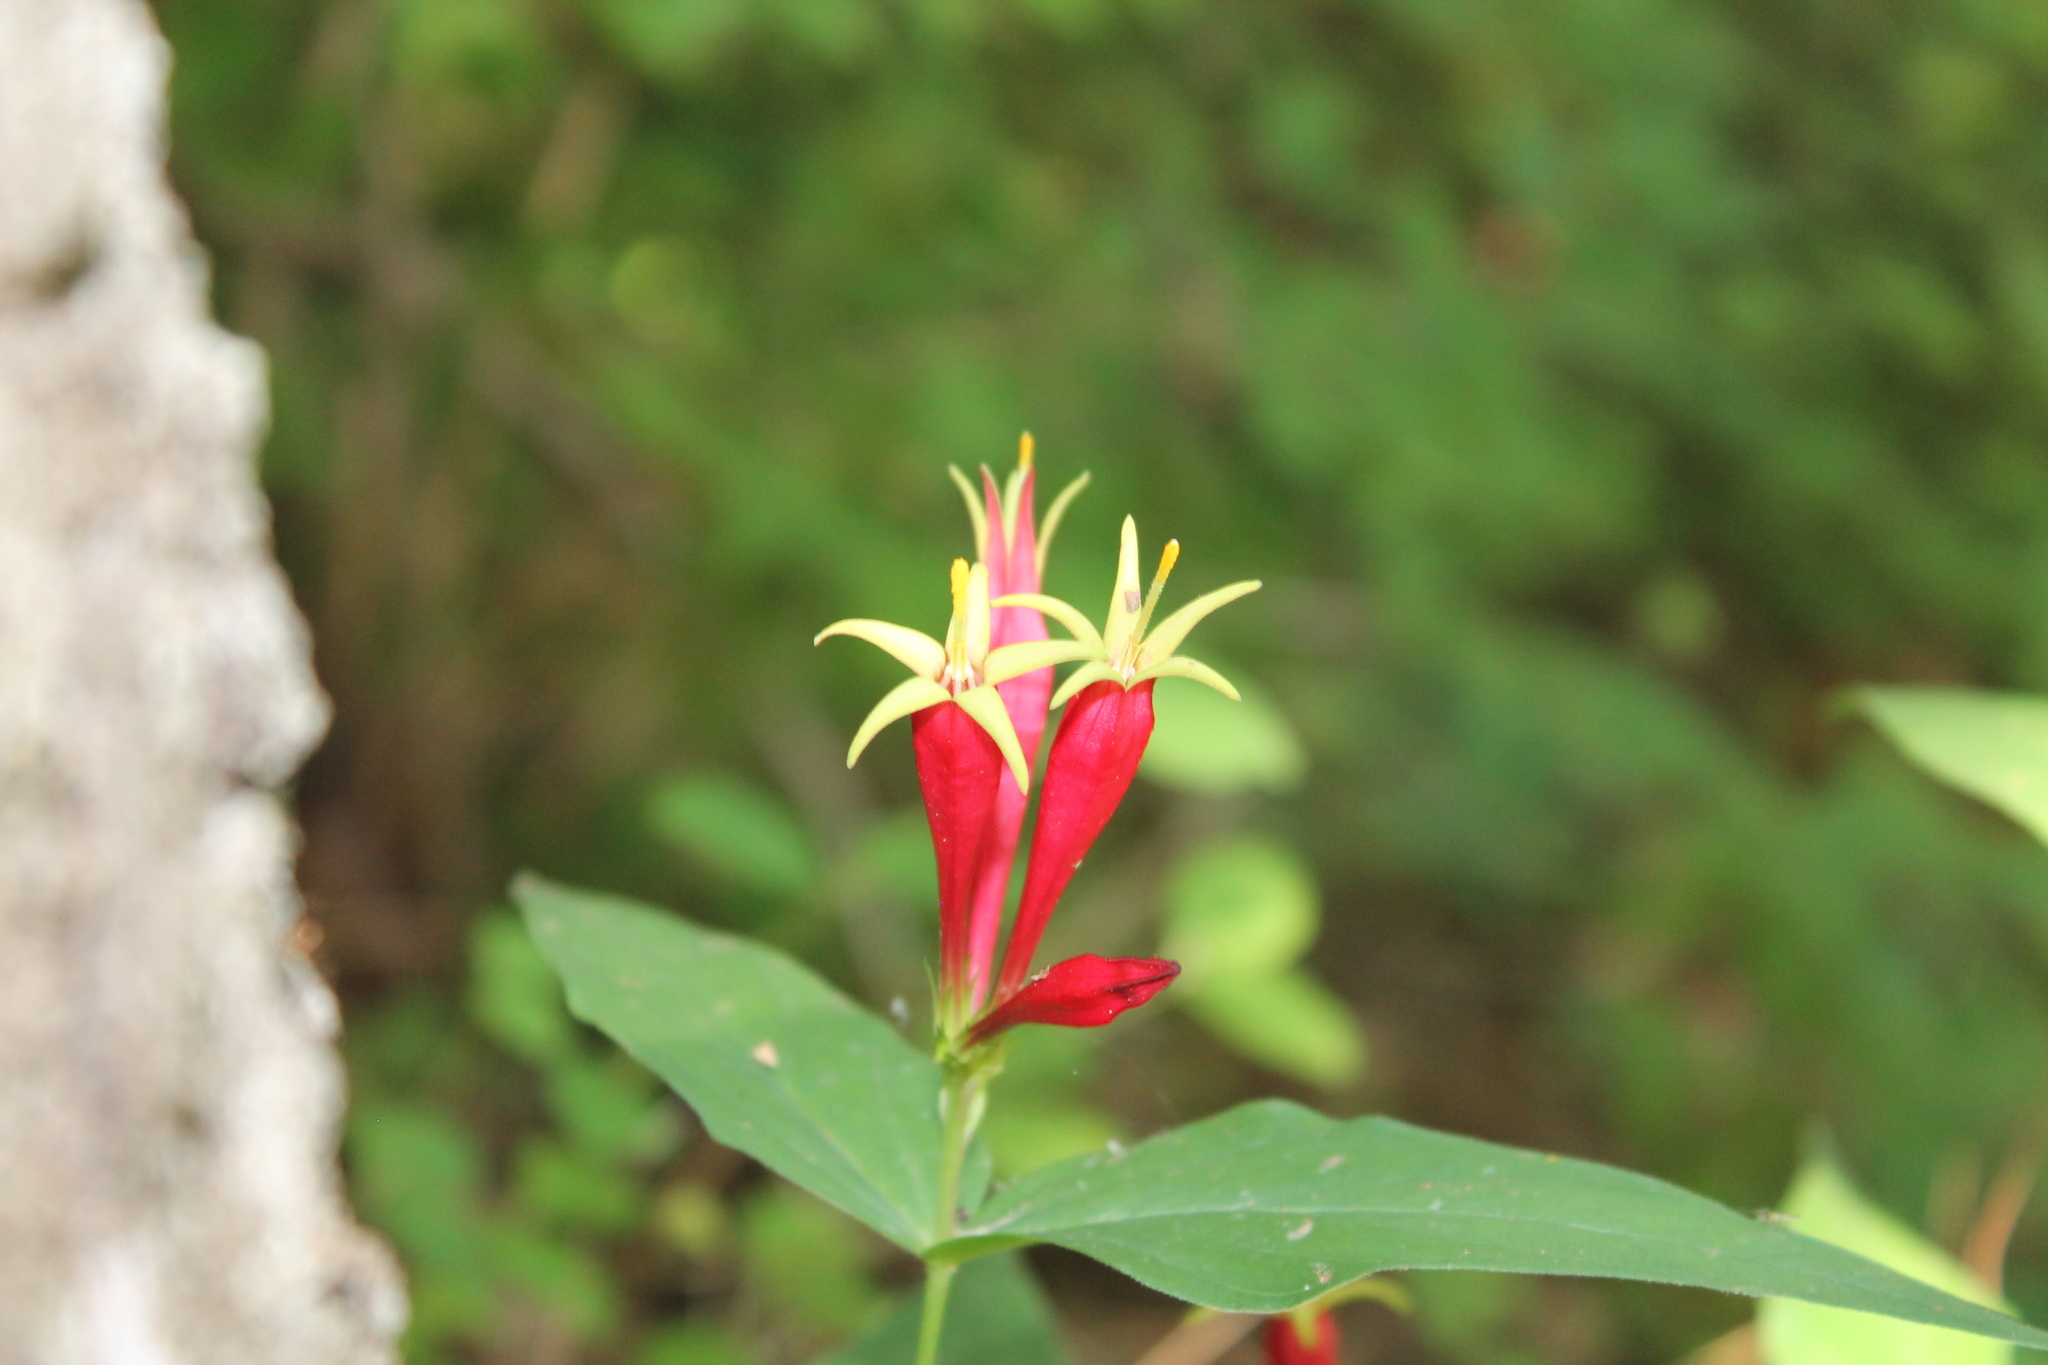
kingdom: Plantae
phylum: Tracheophyta
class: Magnoliopsida
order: Gentianales
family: Loganiaceae
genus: Spigelia
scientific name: Spigelia marilandica
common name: Indian-pink
